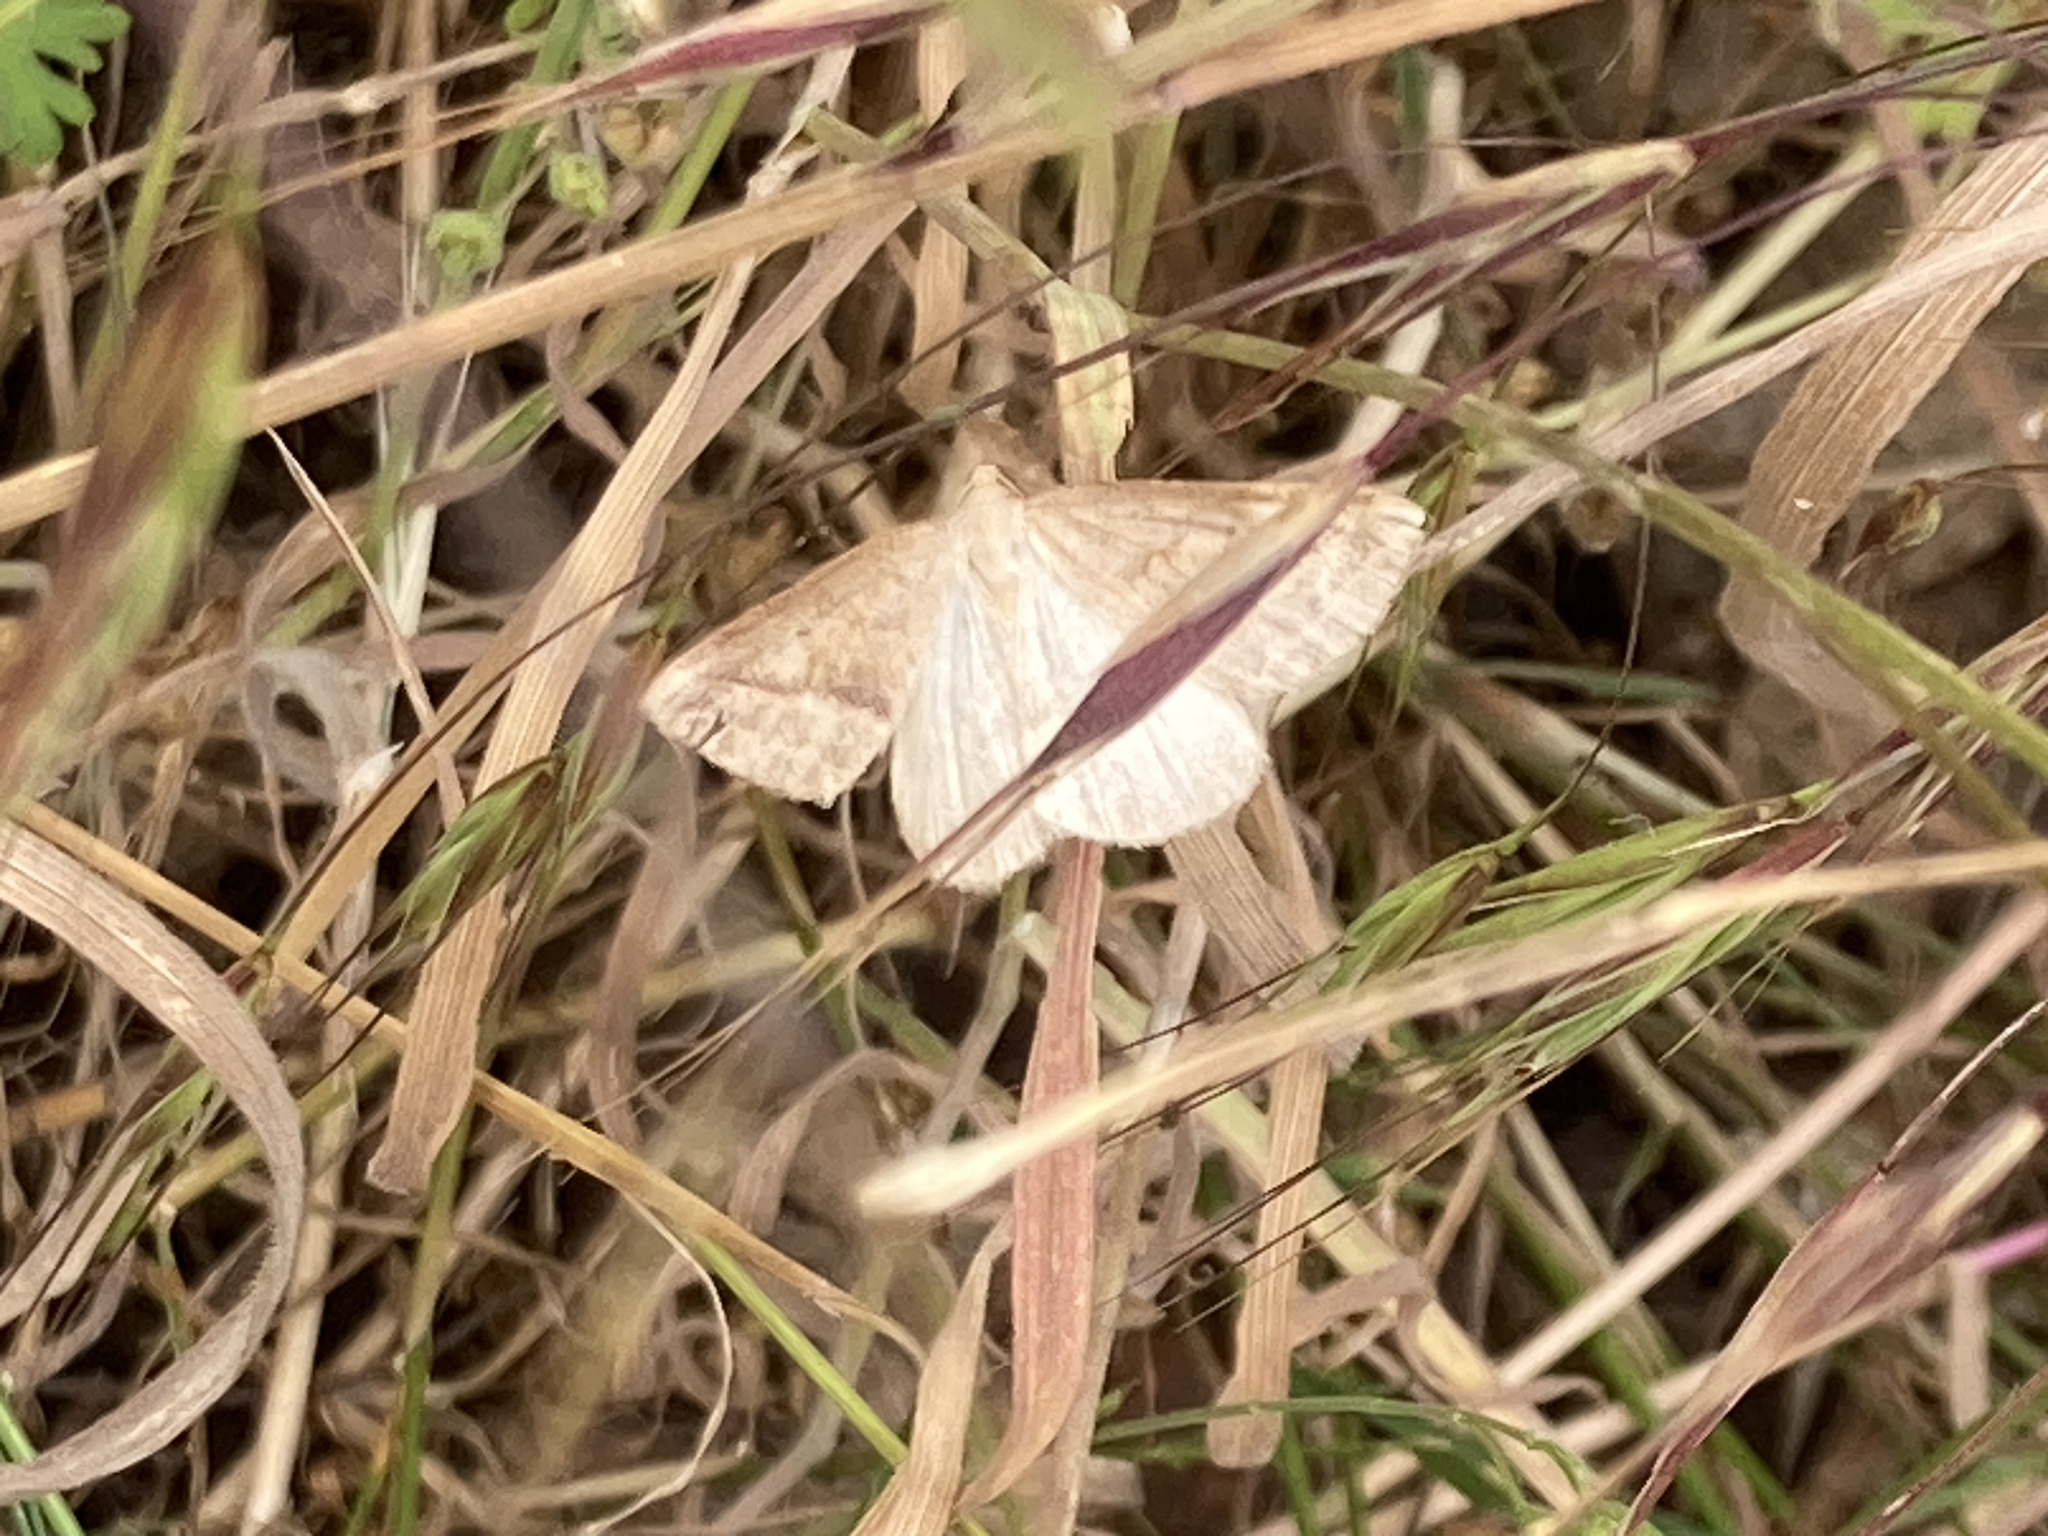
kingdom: Animalia
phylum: Arthropoda
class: Insecta
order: Lepidoptera
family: Pterophoridae
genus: Pterophorus
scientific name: Pterophorus Petrophora chlorosata
